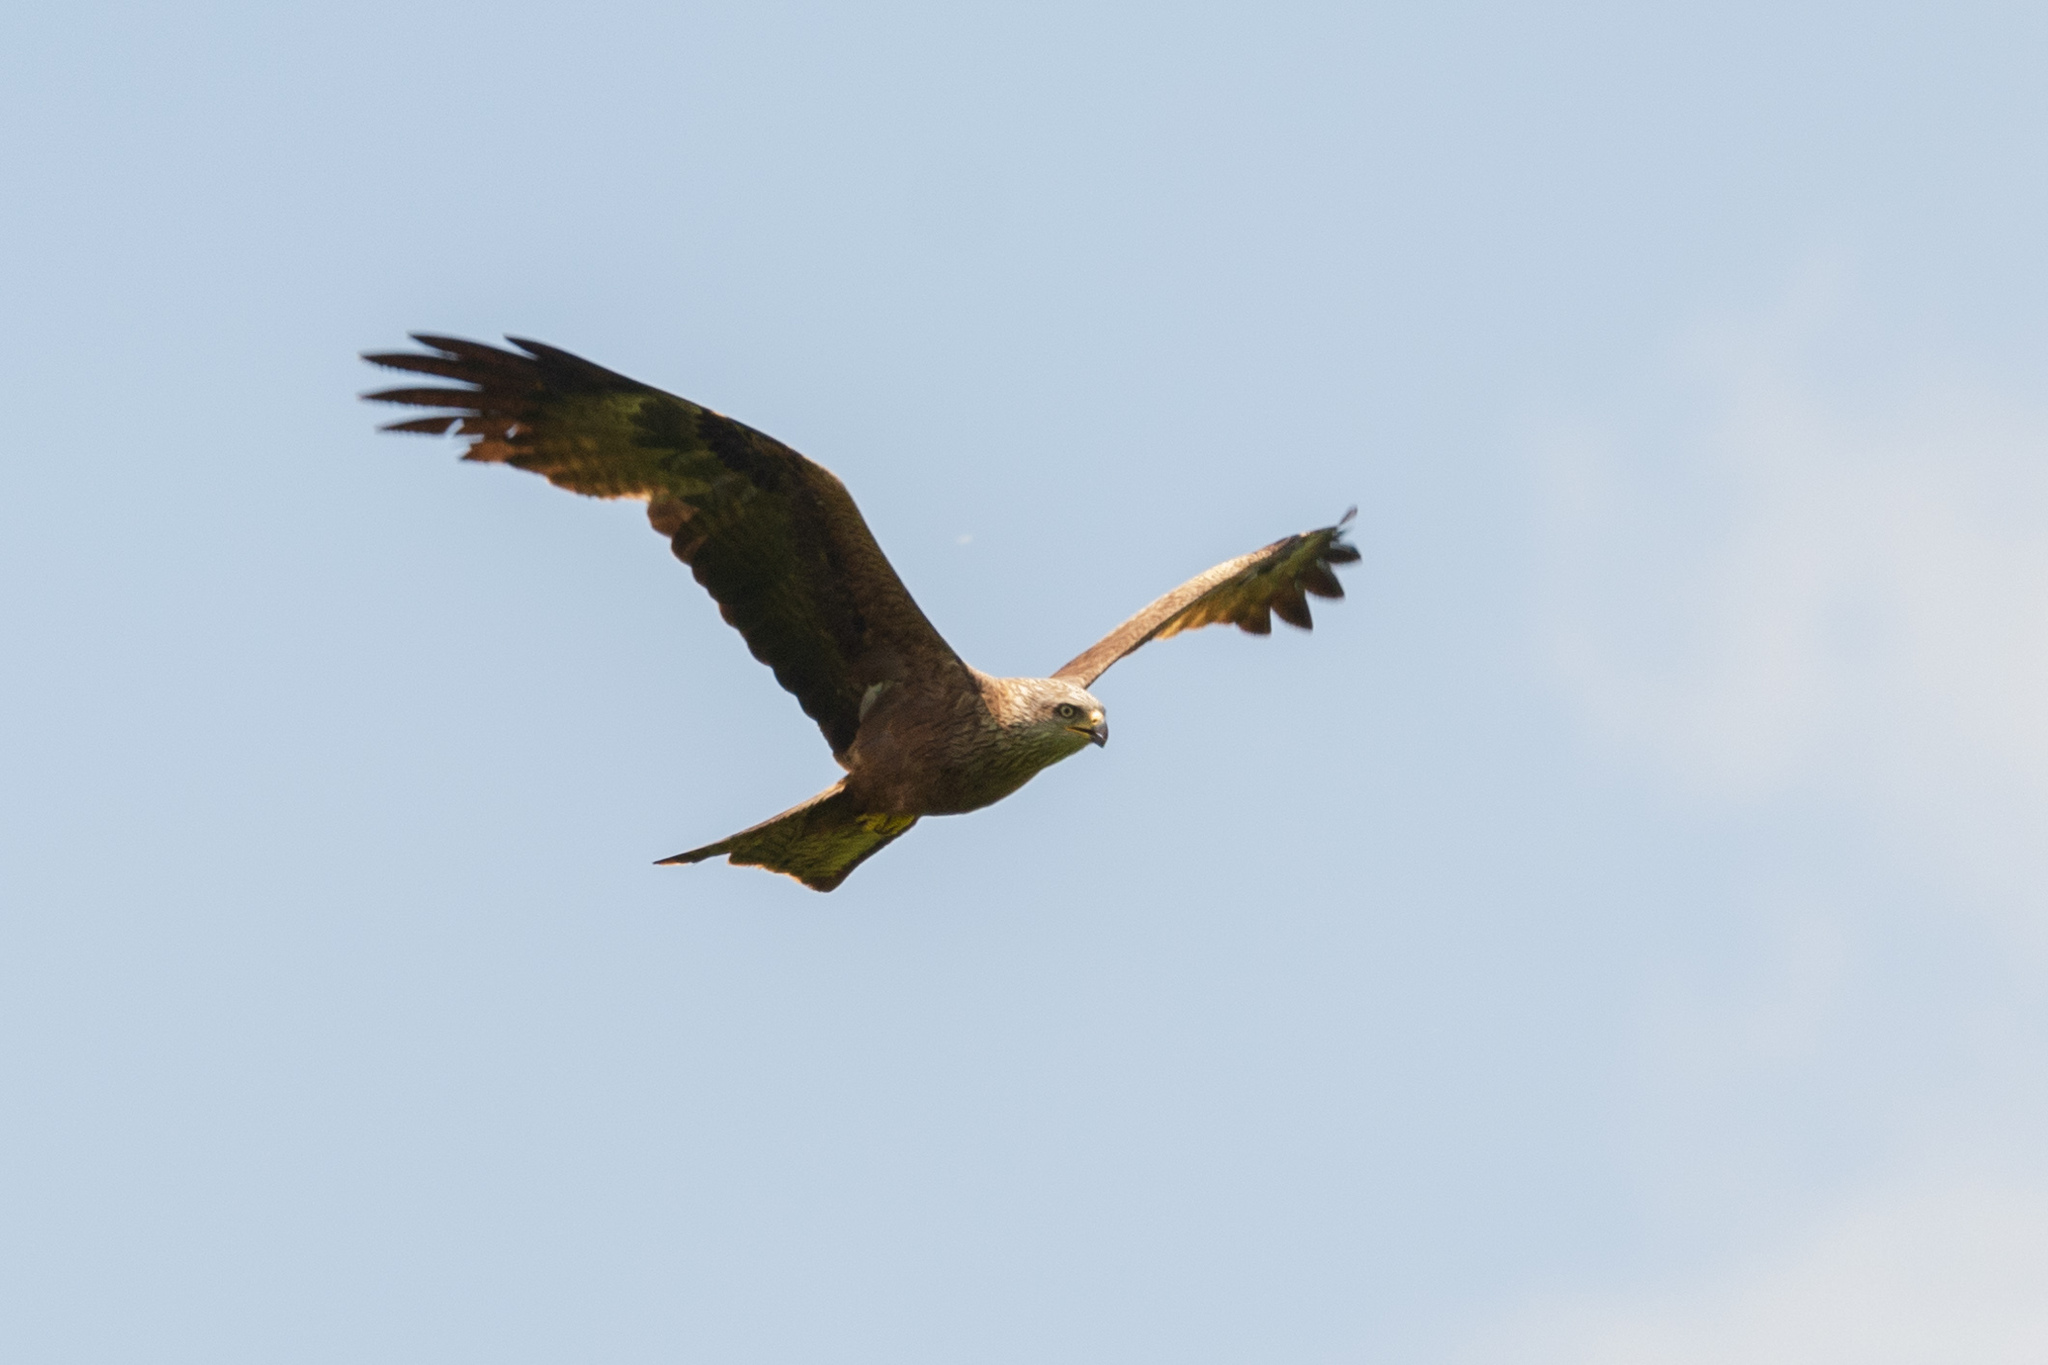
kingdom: Animalia
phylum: Chordata
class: Aves
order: Accipitriformes
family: Accipitridae
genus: Milvus
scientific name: Milvus migrans
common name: Black kite
